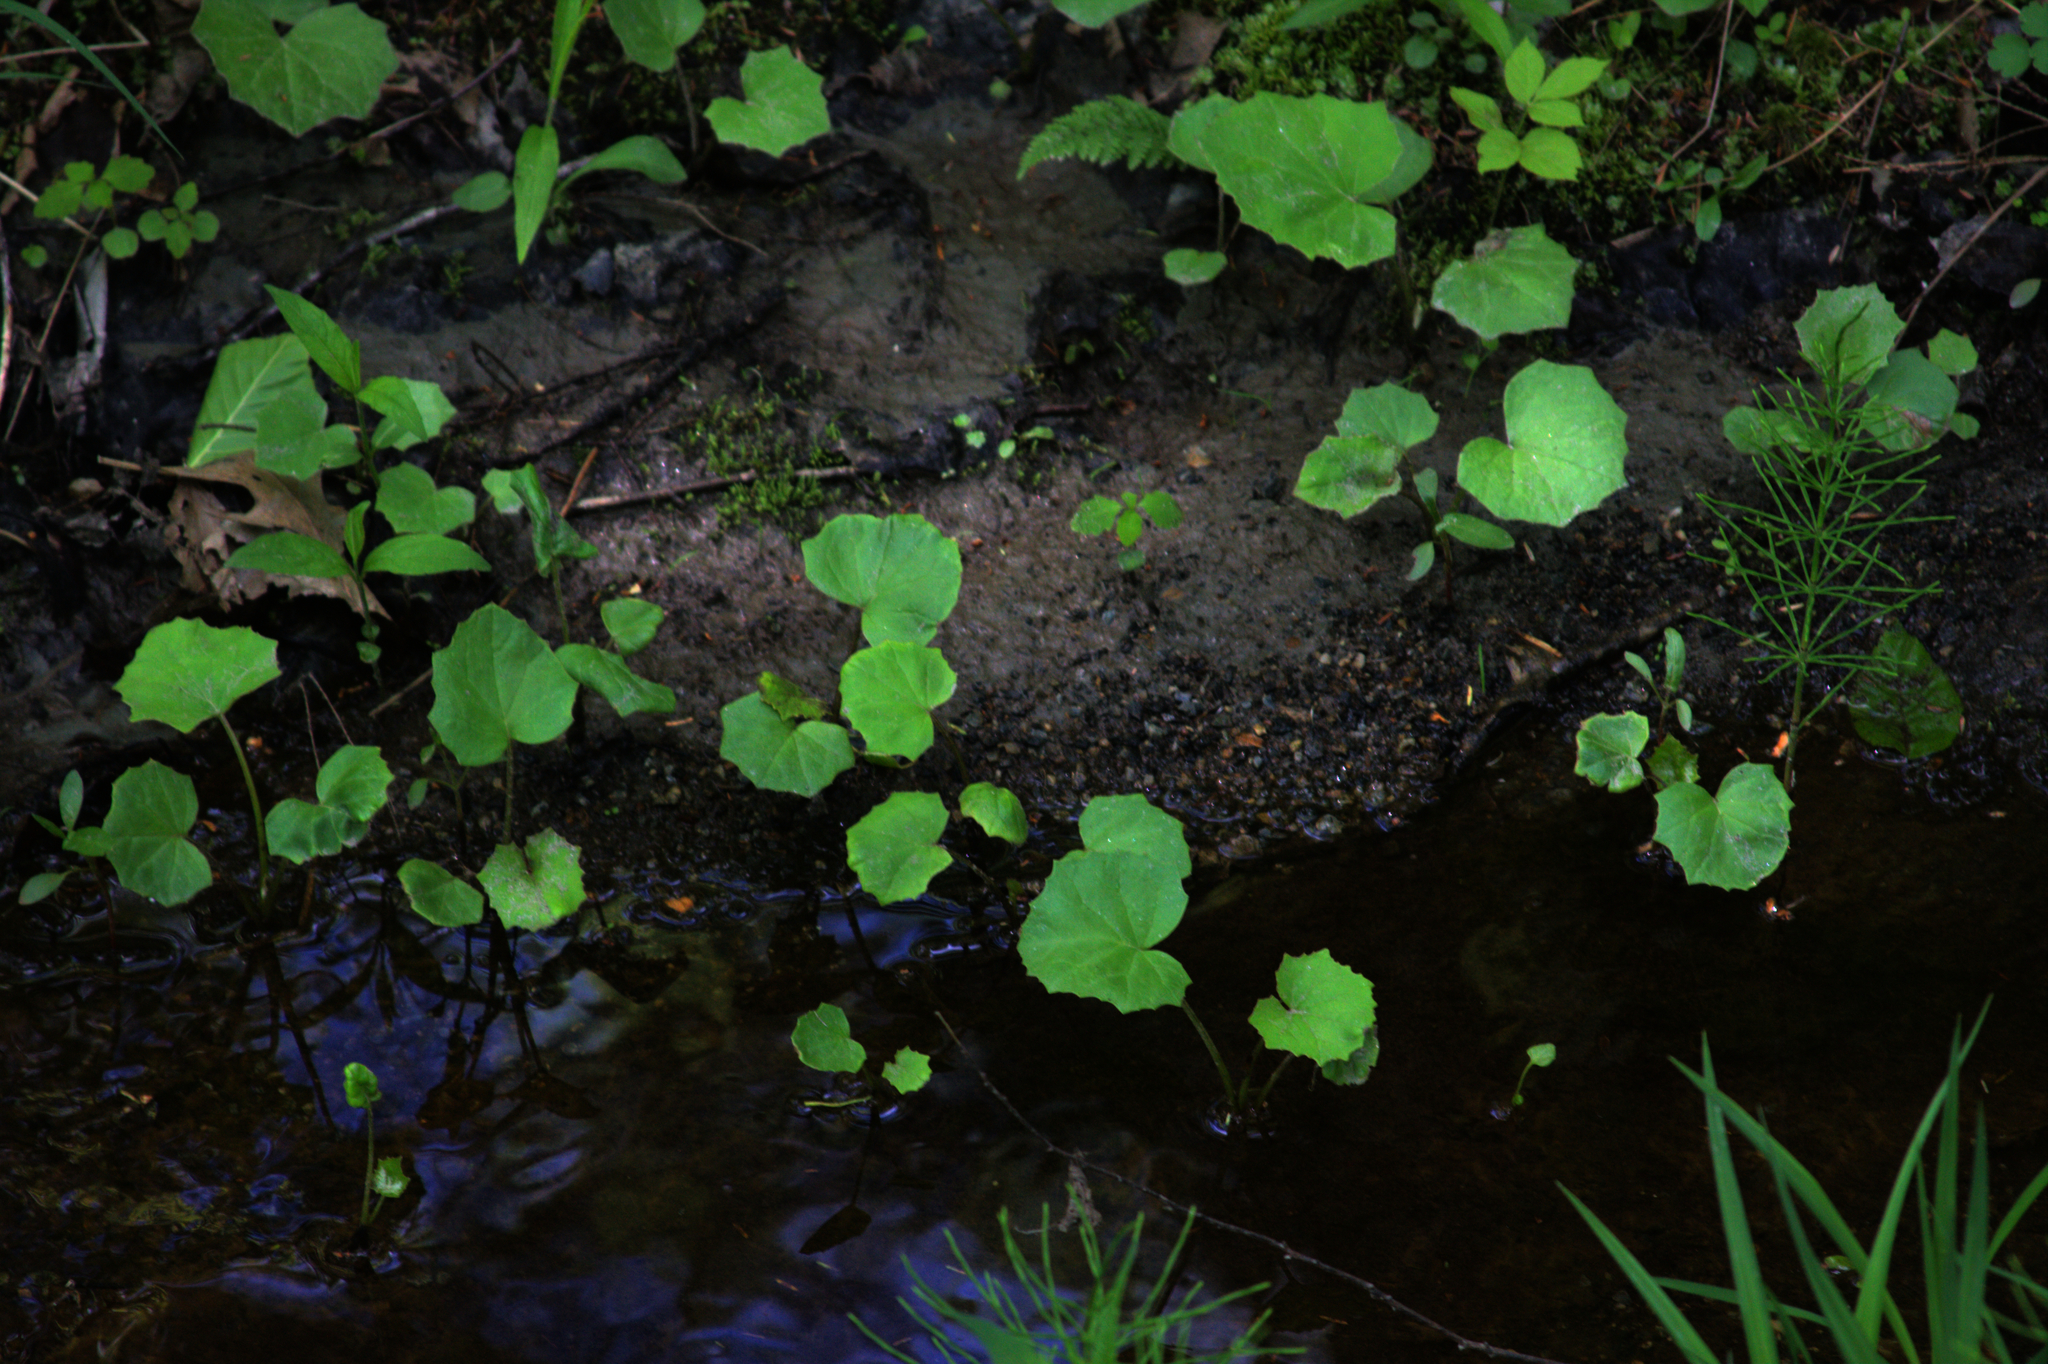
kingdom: Plantae
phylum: Tracheophyta
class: Magnoliopsida
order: Asterales
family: Asteraceae
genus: Tussilago
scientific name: Tussilago farfara
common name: Coltsfoot
